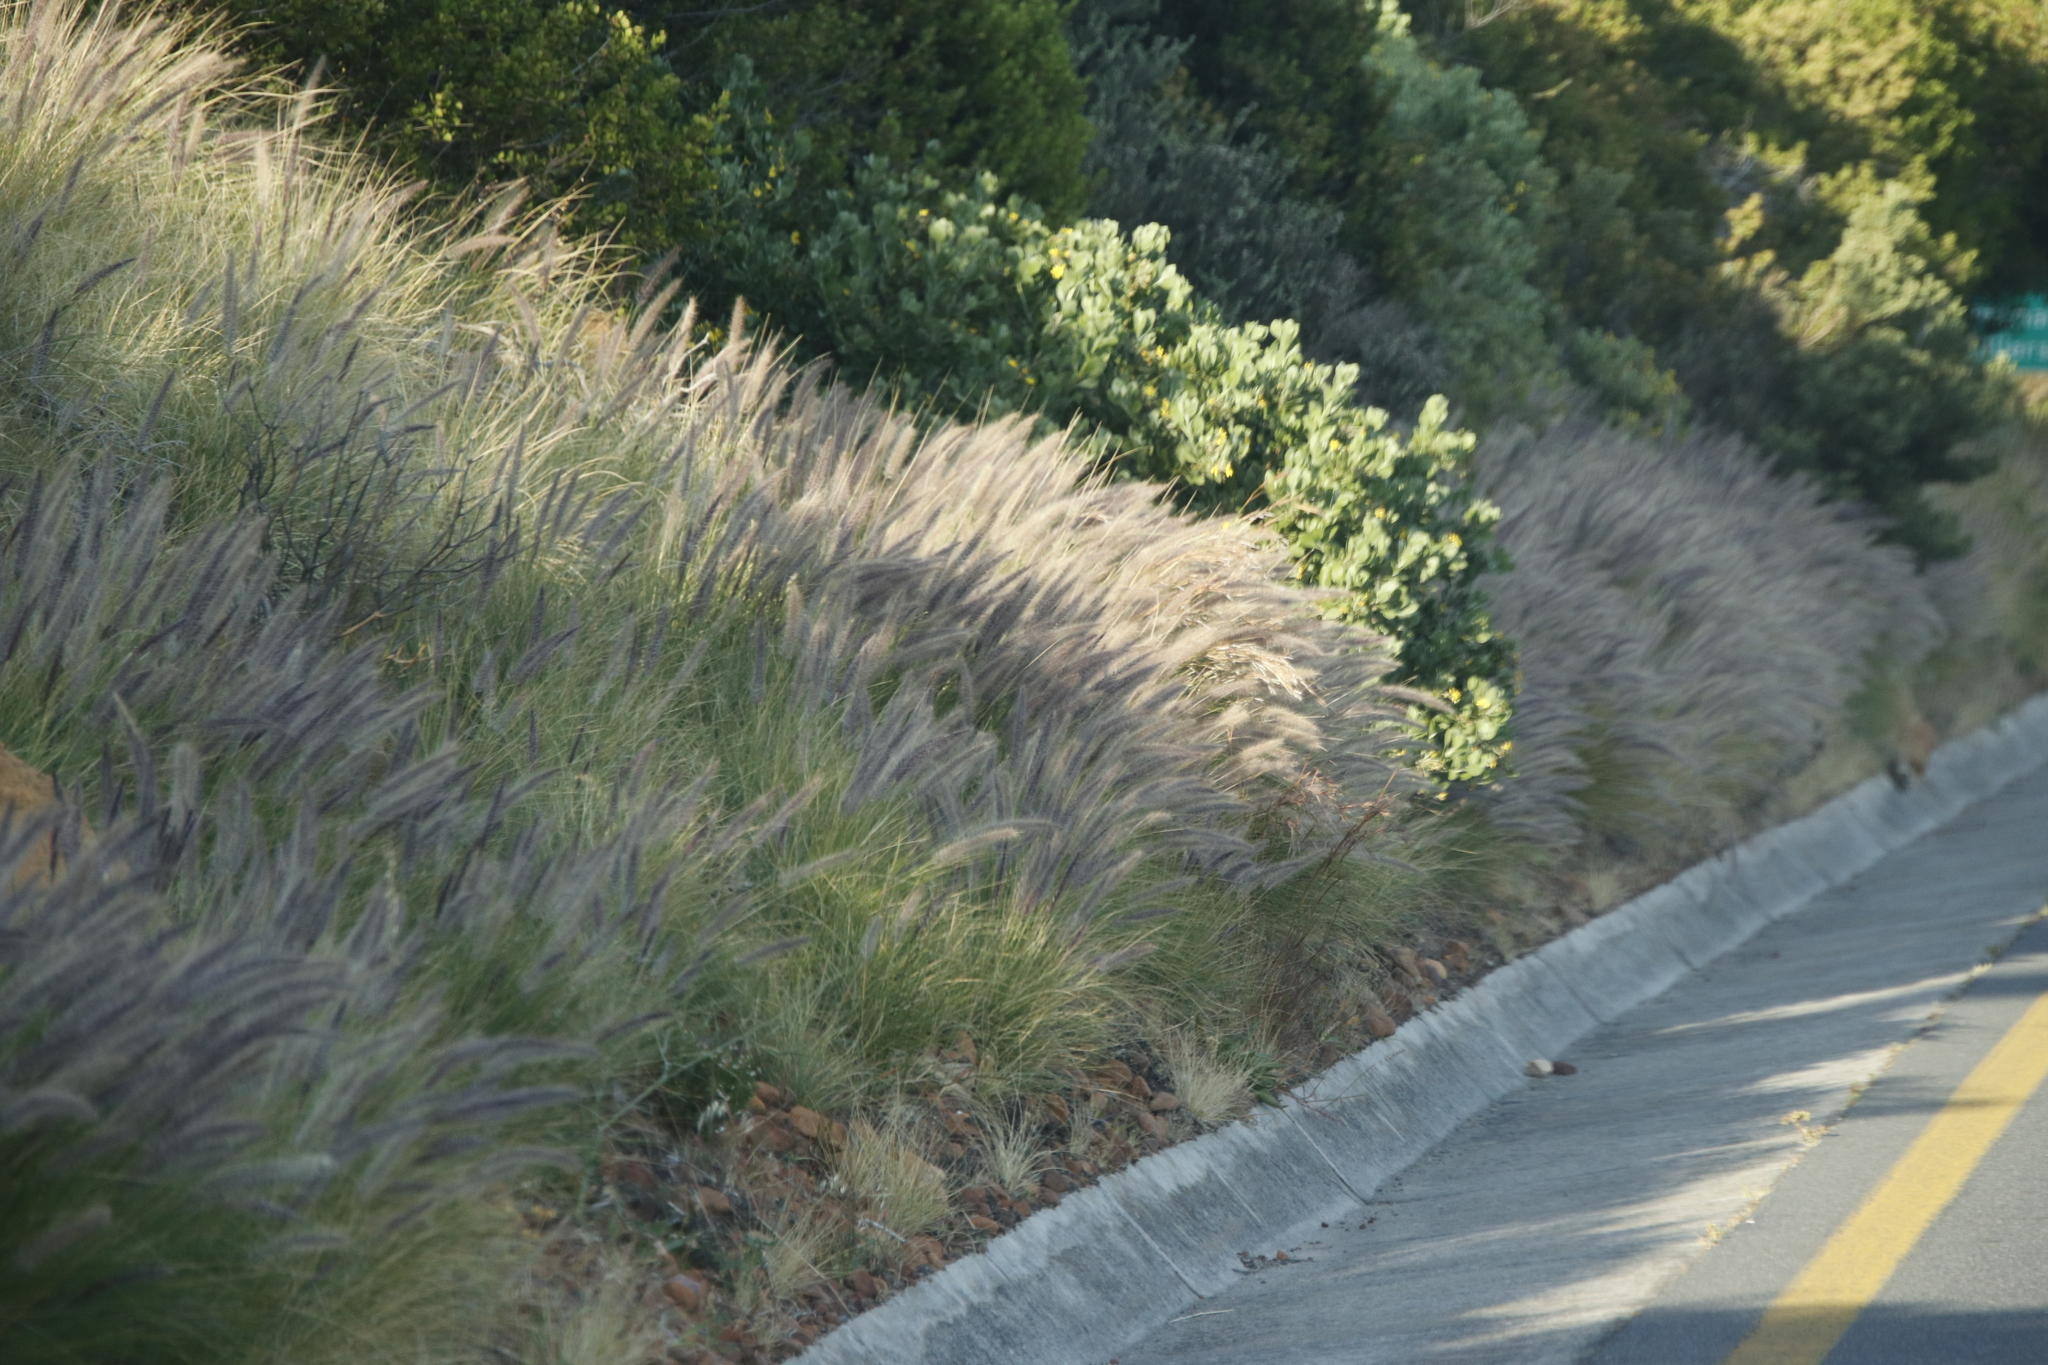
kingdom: Plantae
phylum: Tracheophyta
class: Liliopsida
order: Poales
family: Poaceae
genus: Cenchrus
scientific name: Cenchrus setaceus
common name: Crimson fountaingrass
